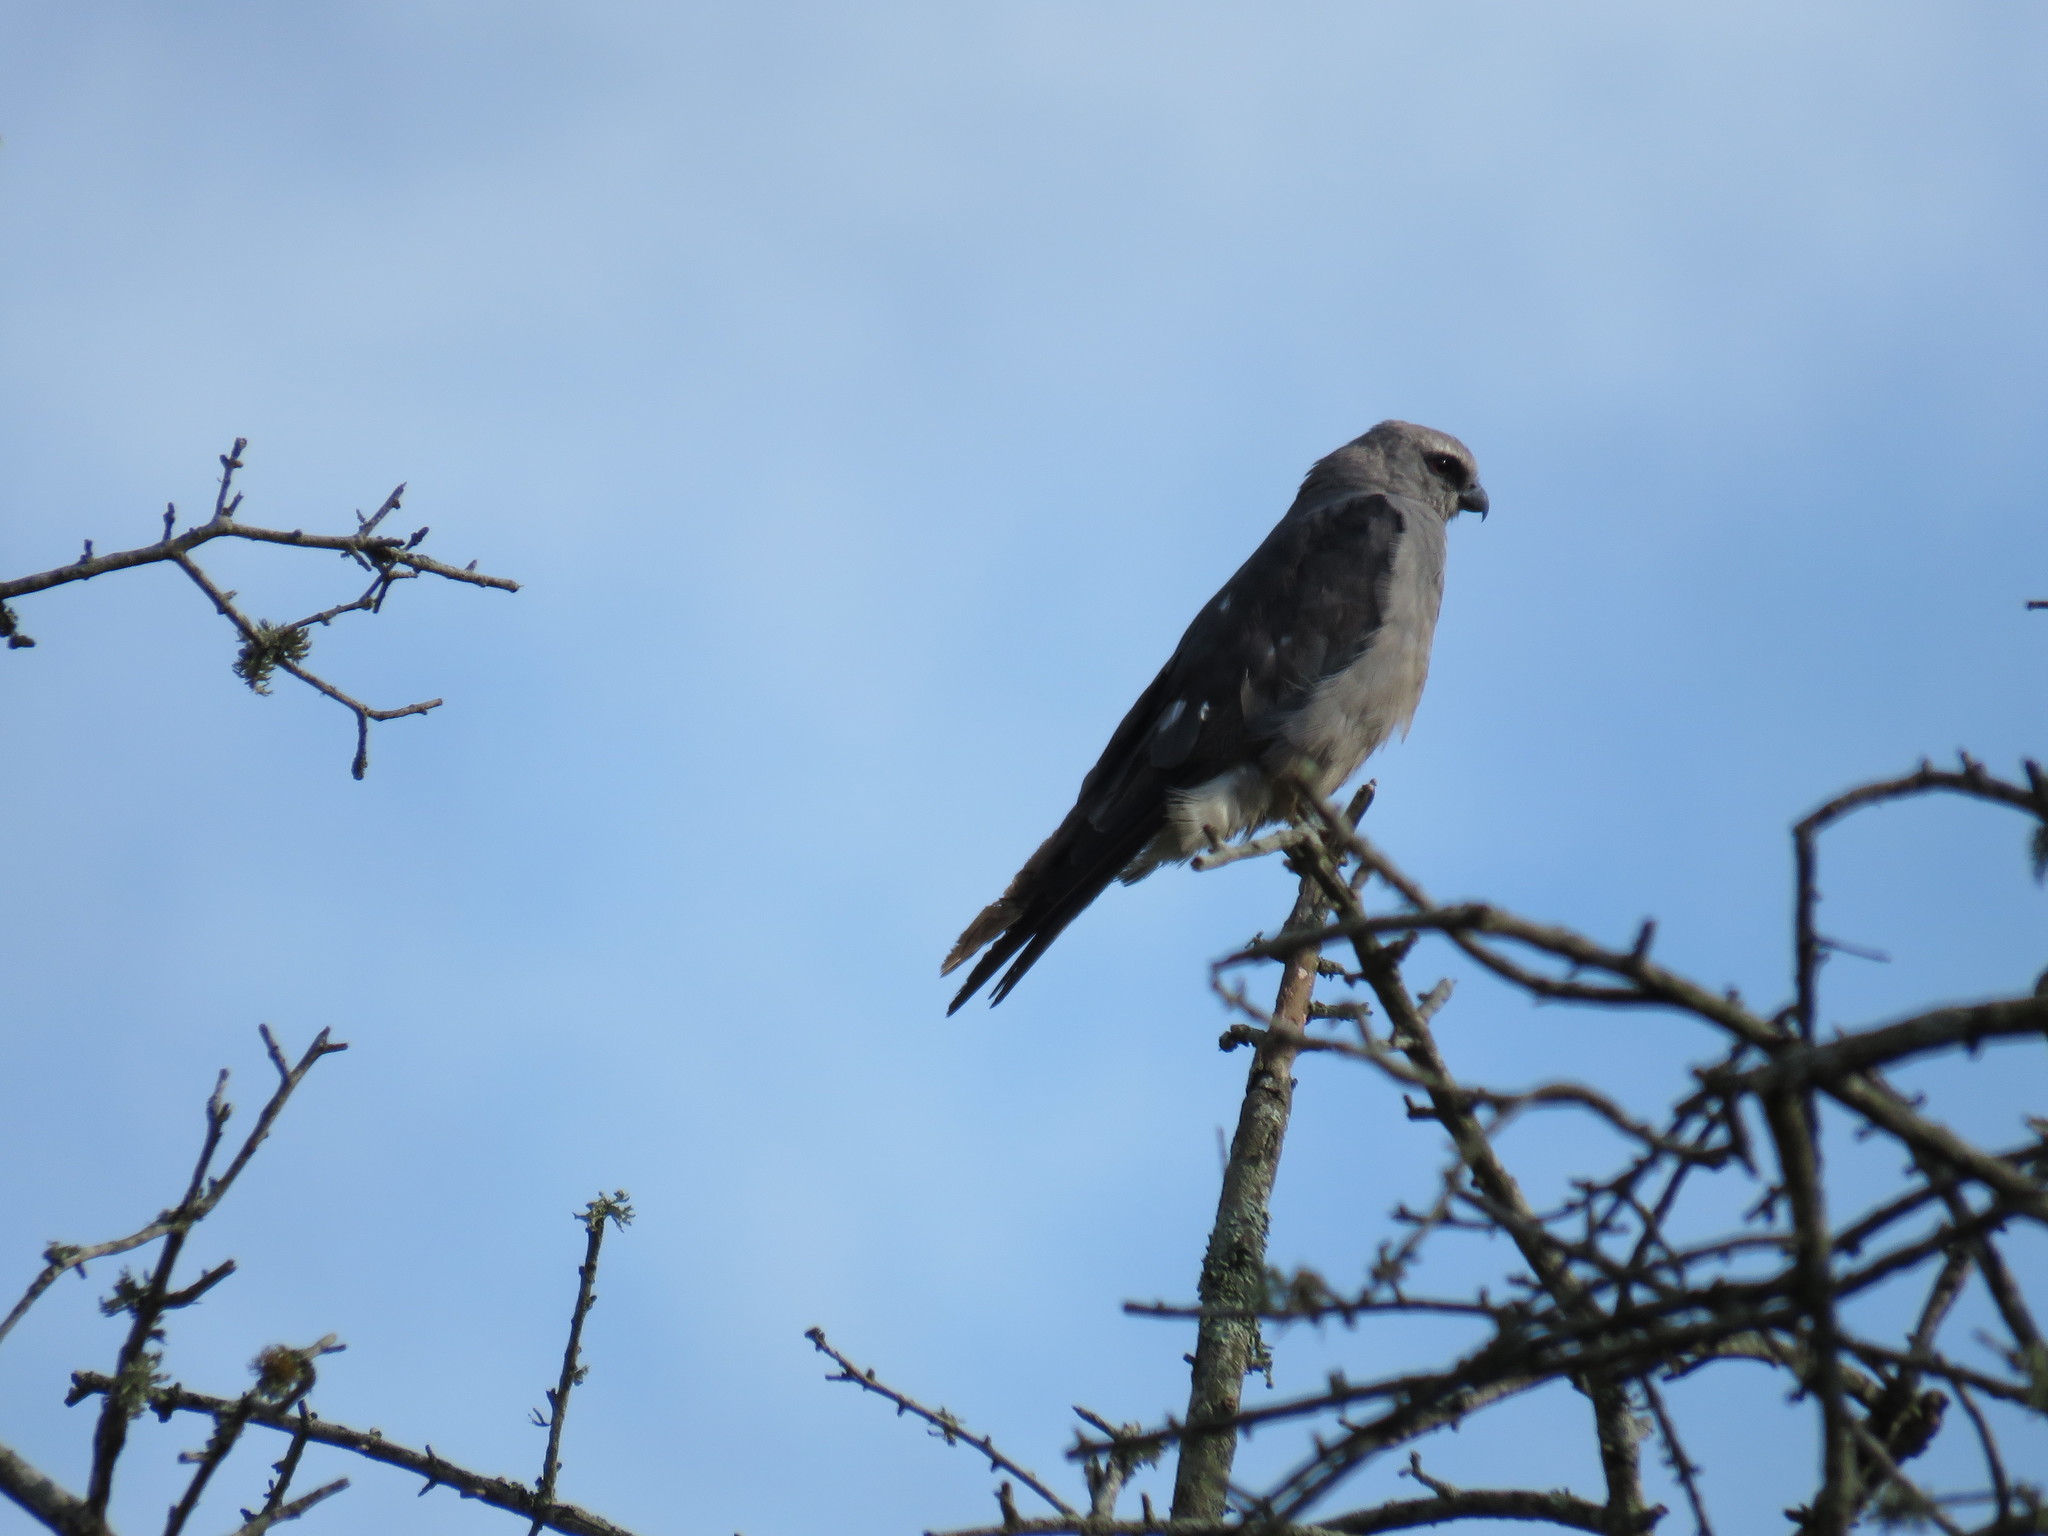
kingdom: Animalia
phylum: Chordata
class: Aves
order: Accipitriformes
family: Accipitridae
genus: Ictinia
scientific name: Ictinia plumbea
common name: Plumbeous kite
